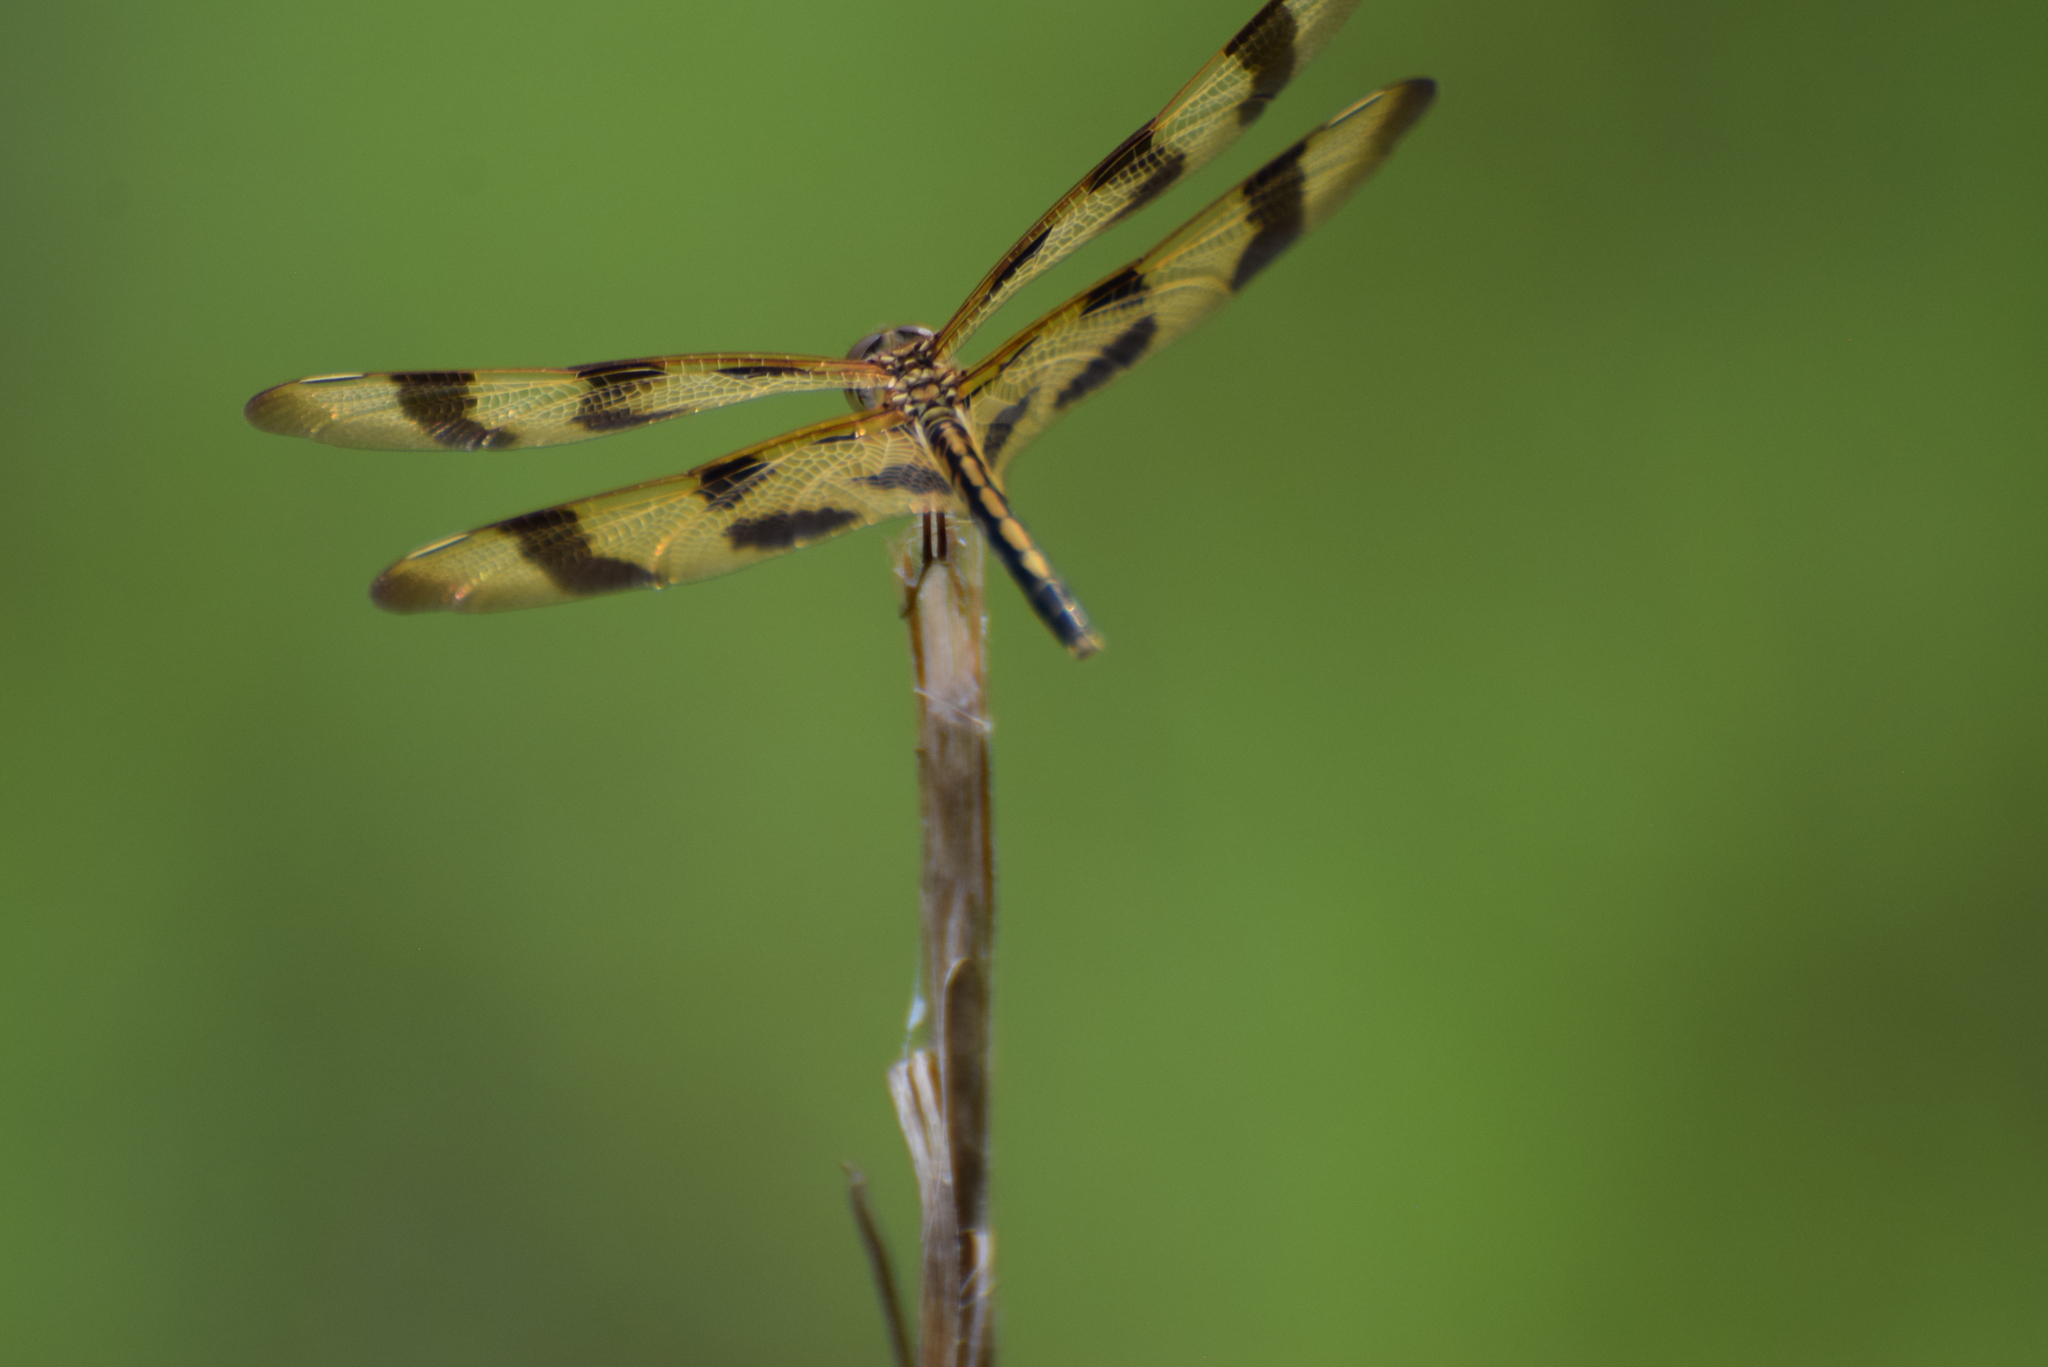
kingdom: Animalia
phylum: Arthropoda
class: Insecta
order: Odonata
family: Libellulidae
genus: Celithemis
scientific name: Celithemis eponina
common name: Halloween pennant
